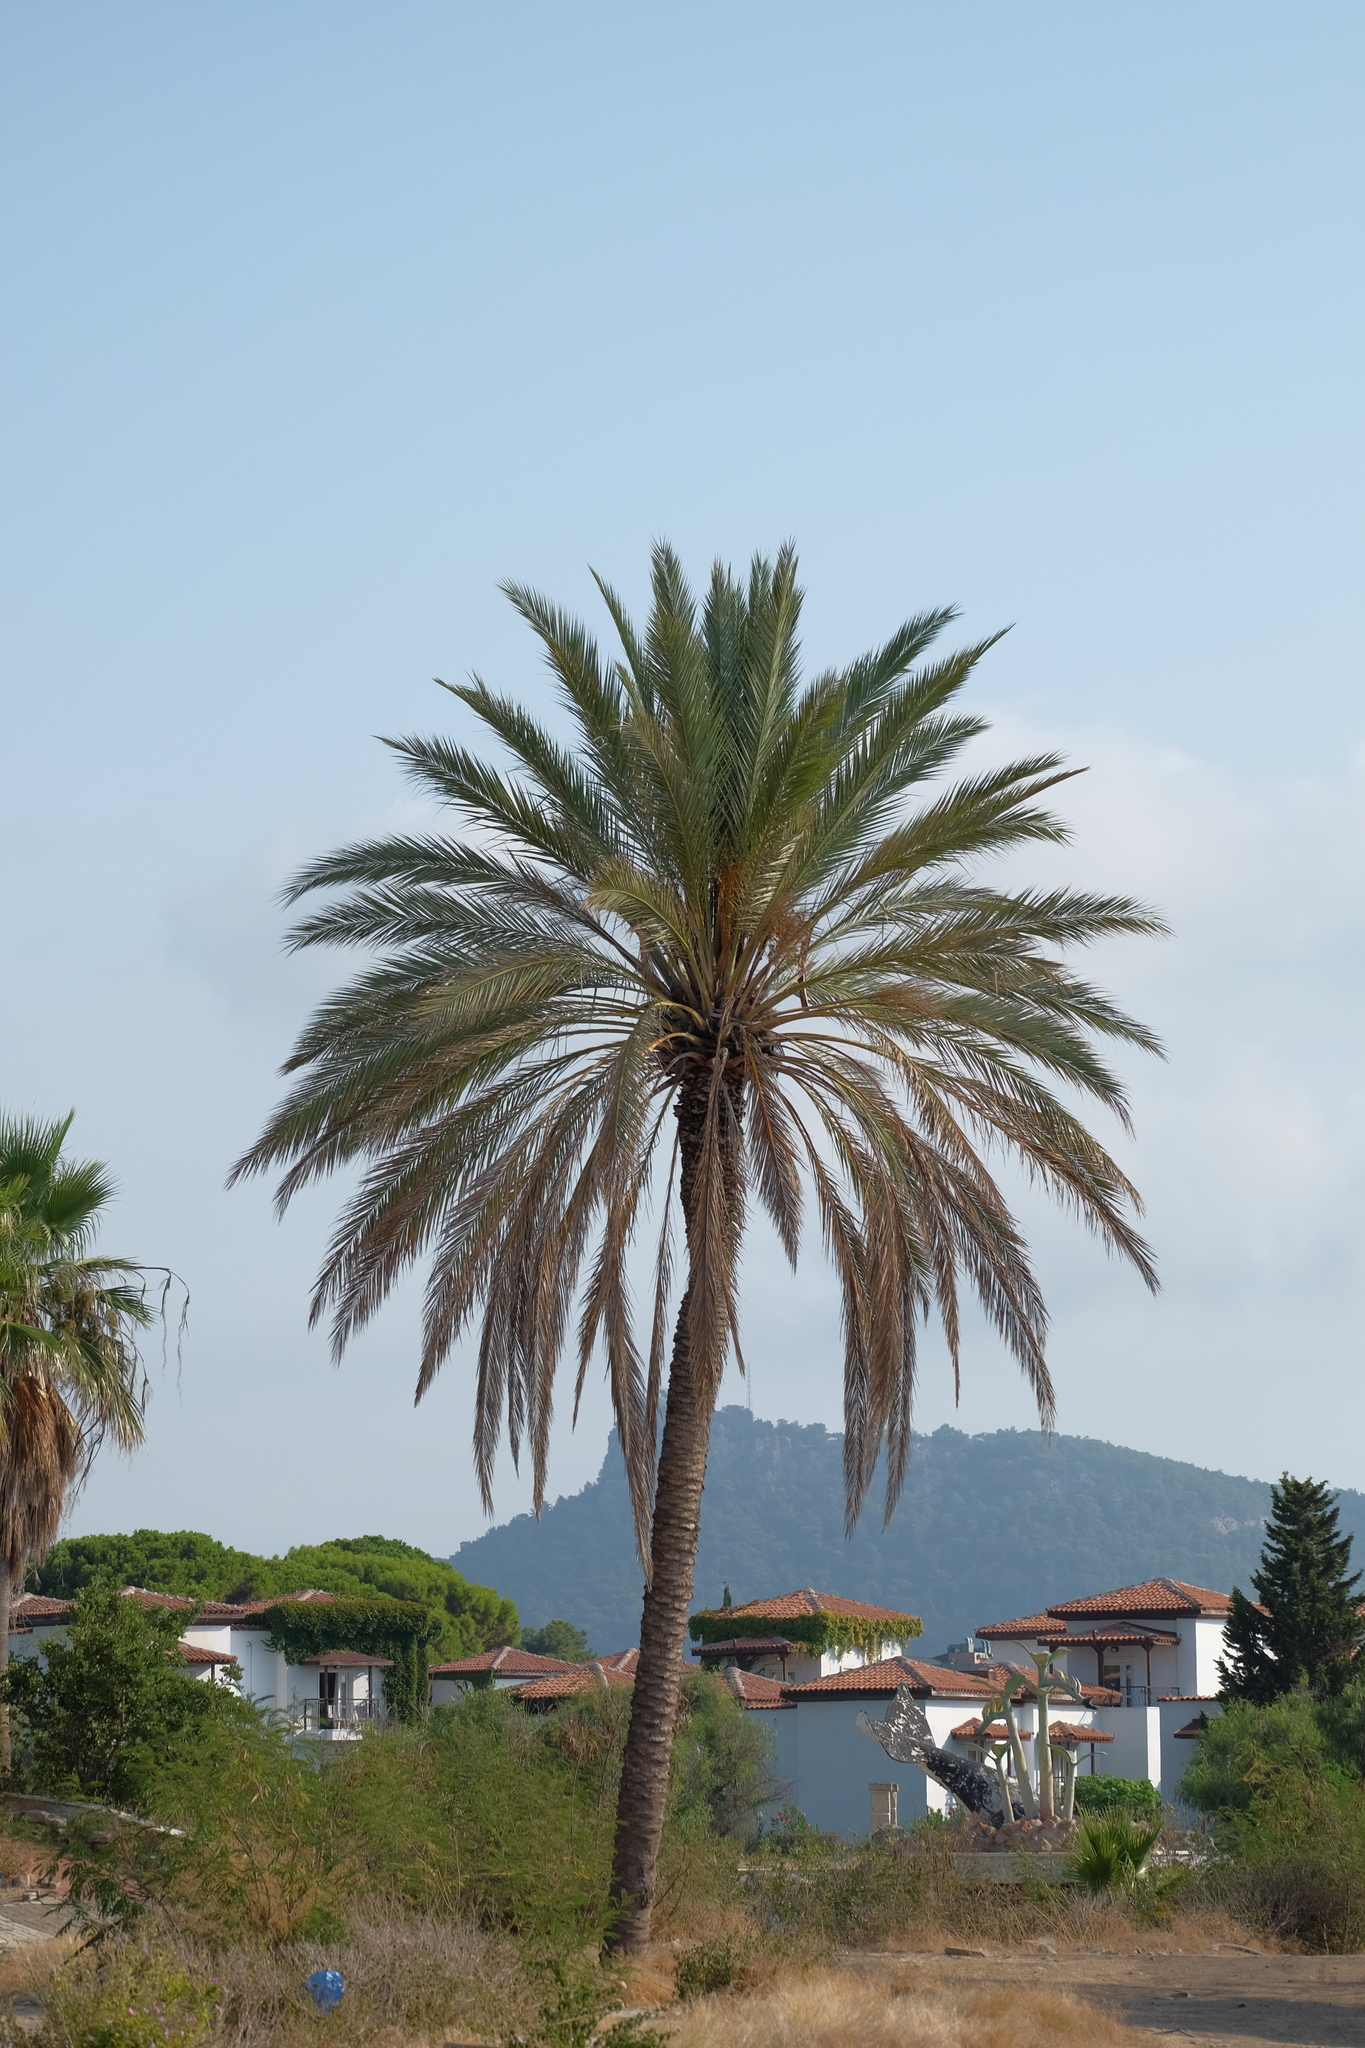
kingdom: Plantae
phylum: Tracheophyta
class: Liliopsida
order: Arecales
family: Arecaceae
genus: Phoenix
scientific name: Phoenix dactylifera
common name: Date palm
